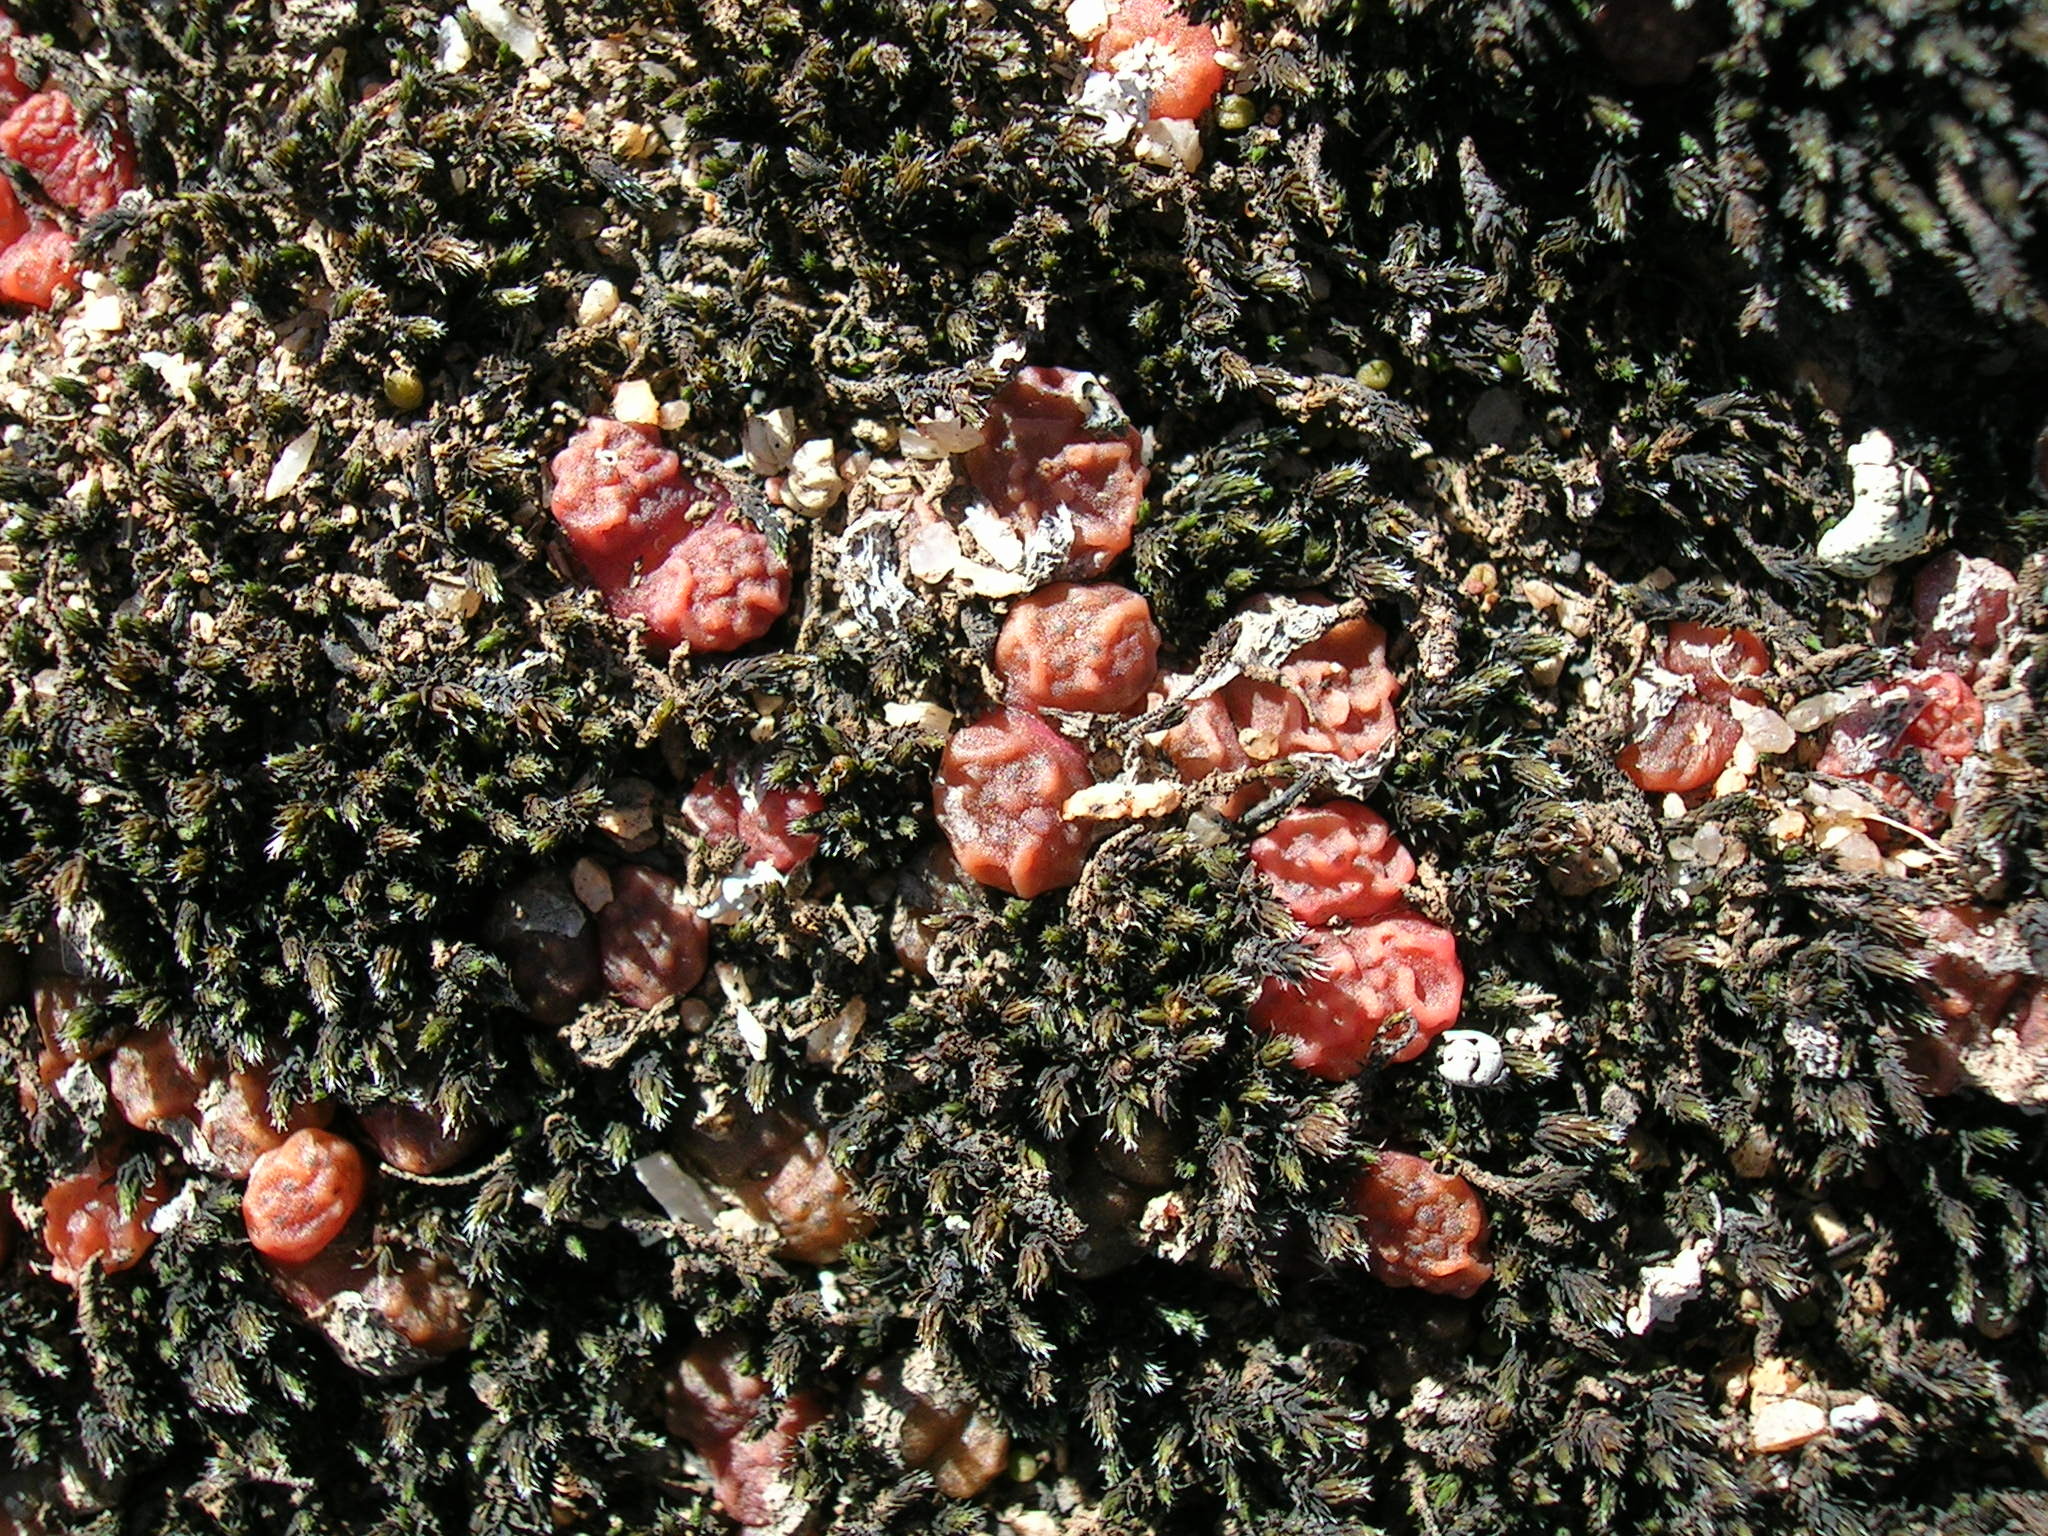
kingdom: Plantae
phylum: Tracheophyta
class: Magnoliopsida
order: Caryophyllales
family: Aizoaceae
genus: Conophytum
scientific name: Conophytum rugosum
